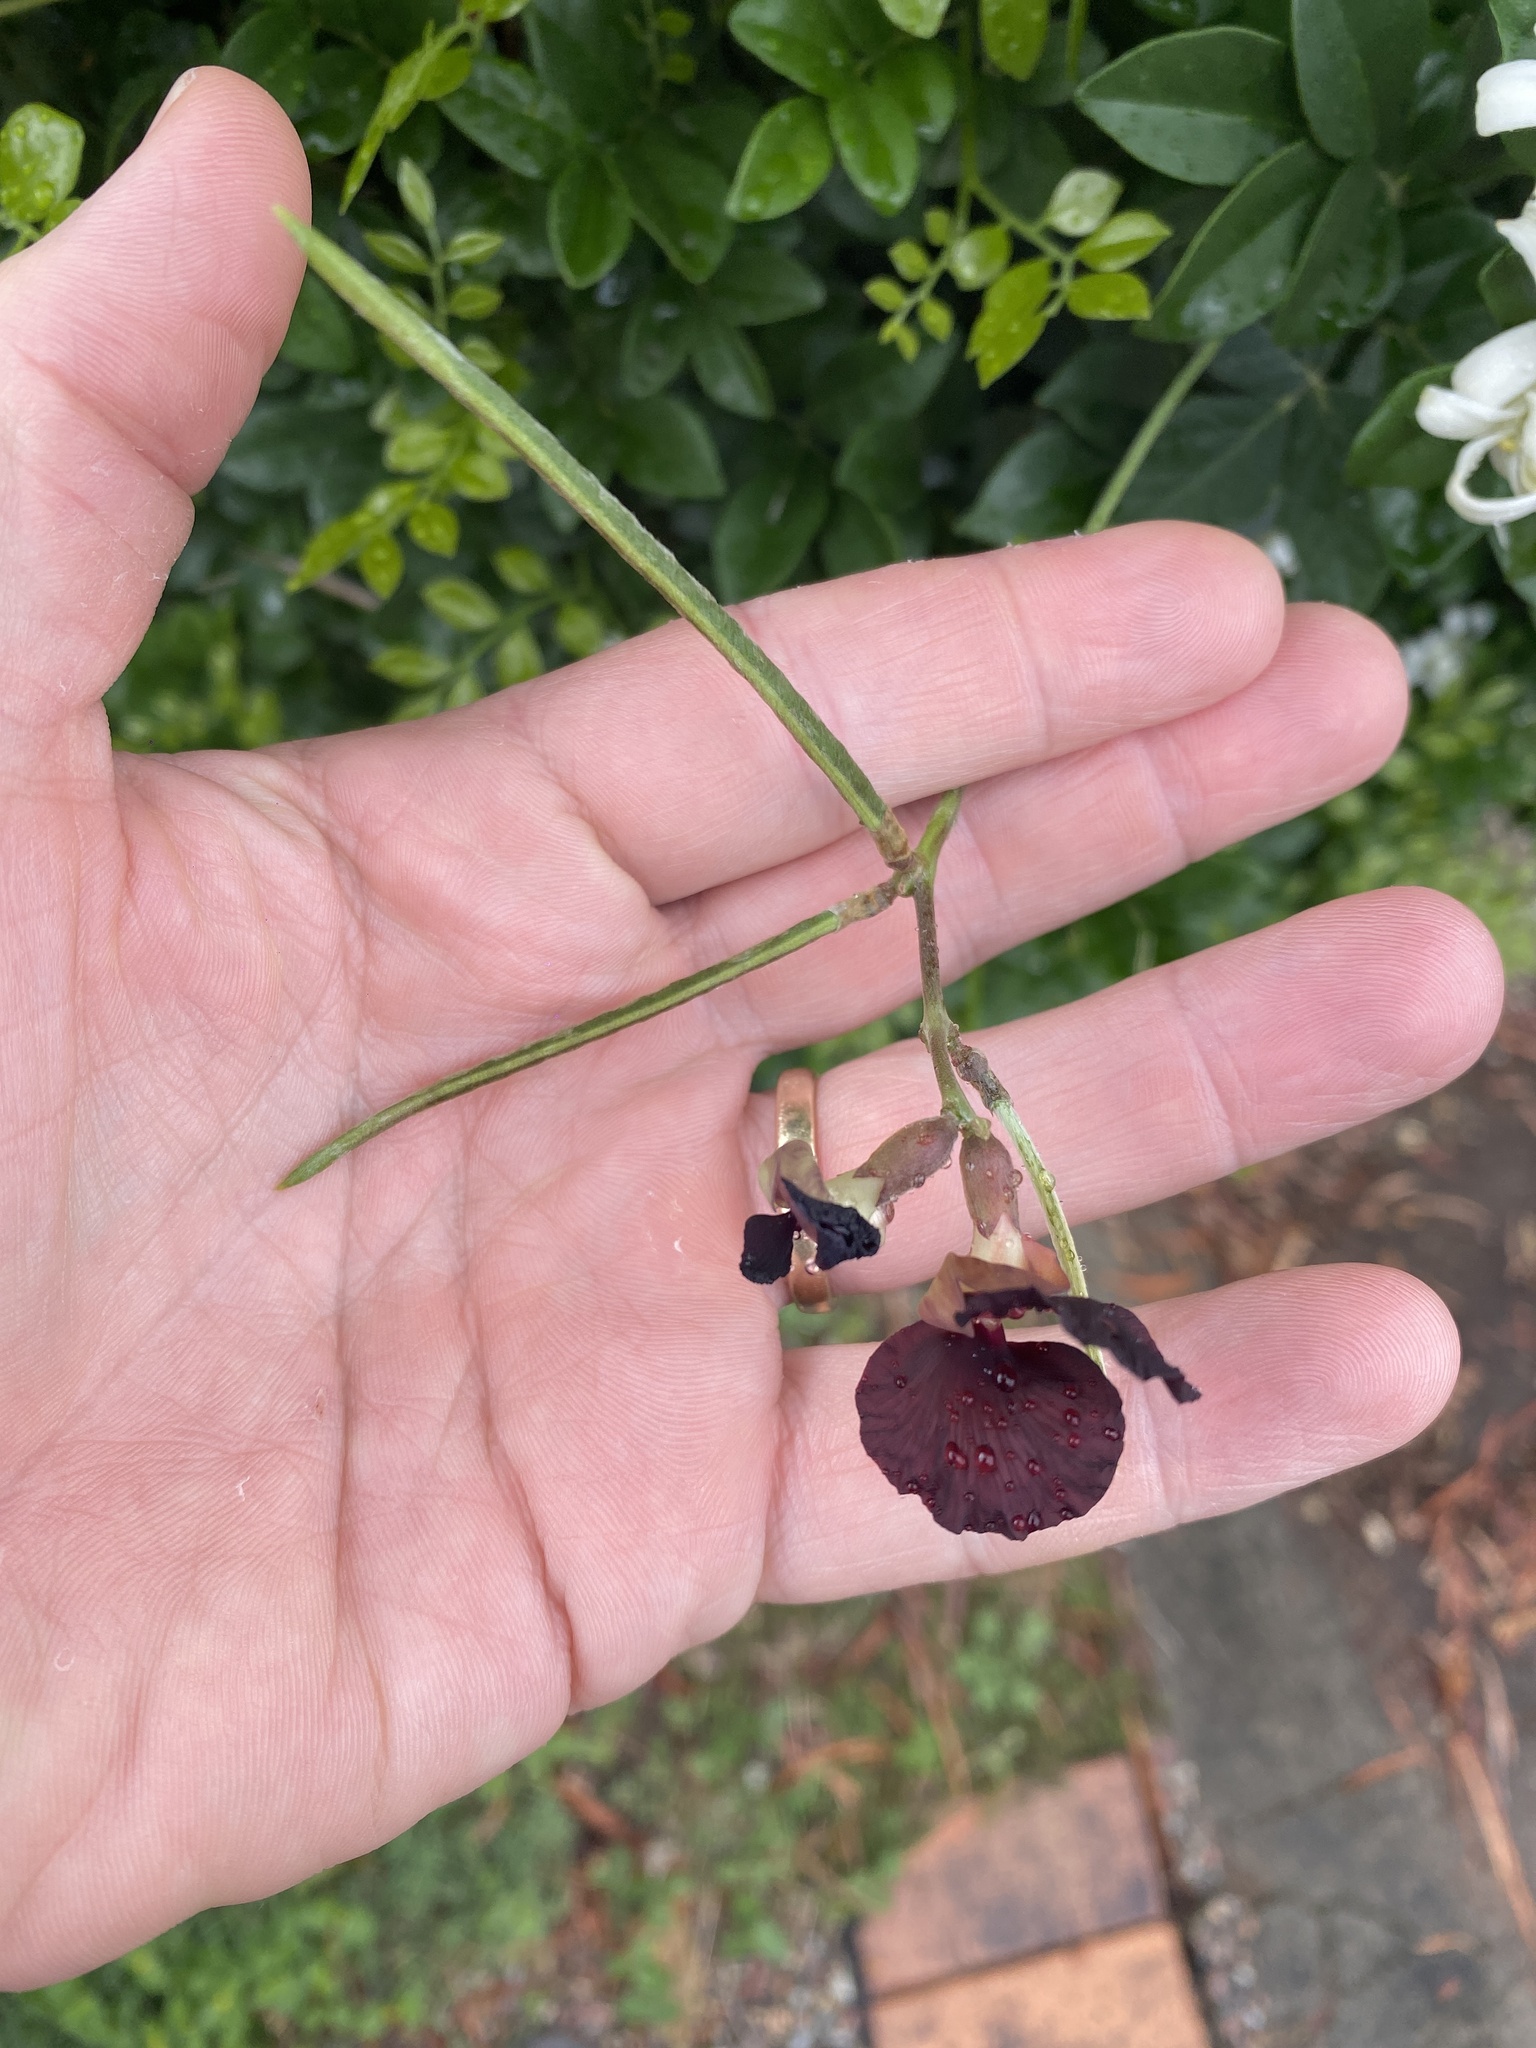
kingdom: Plantae
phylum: Tracheophyta
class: Magnoliopsida
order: Fabales
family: Fabaceae
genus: Macroptilium
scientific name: Macroptilium atropurpureum
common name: Purple bushbean
